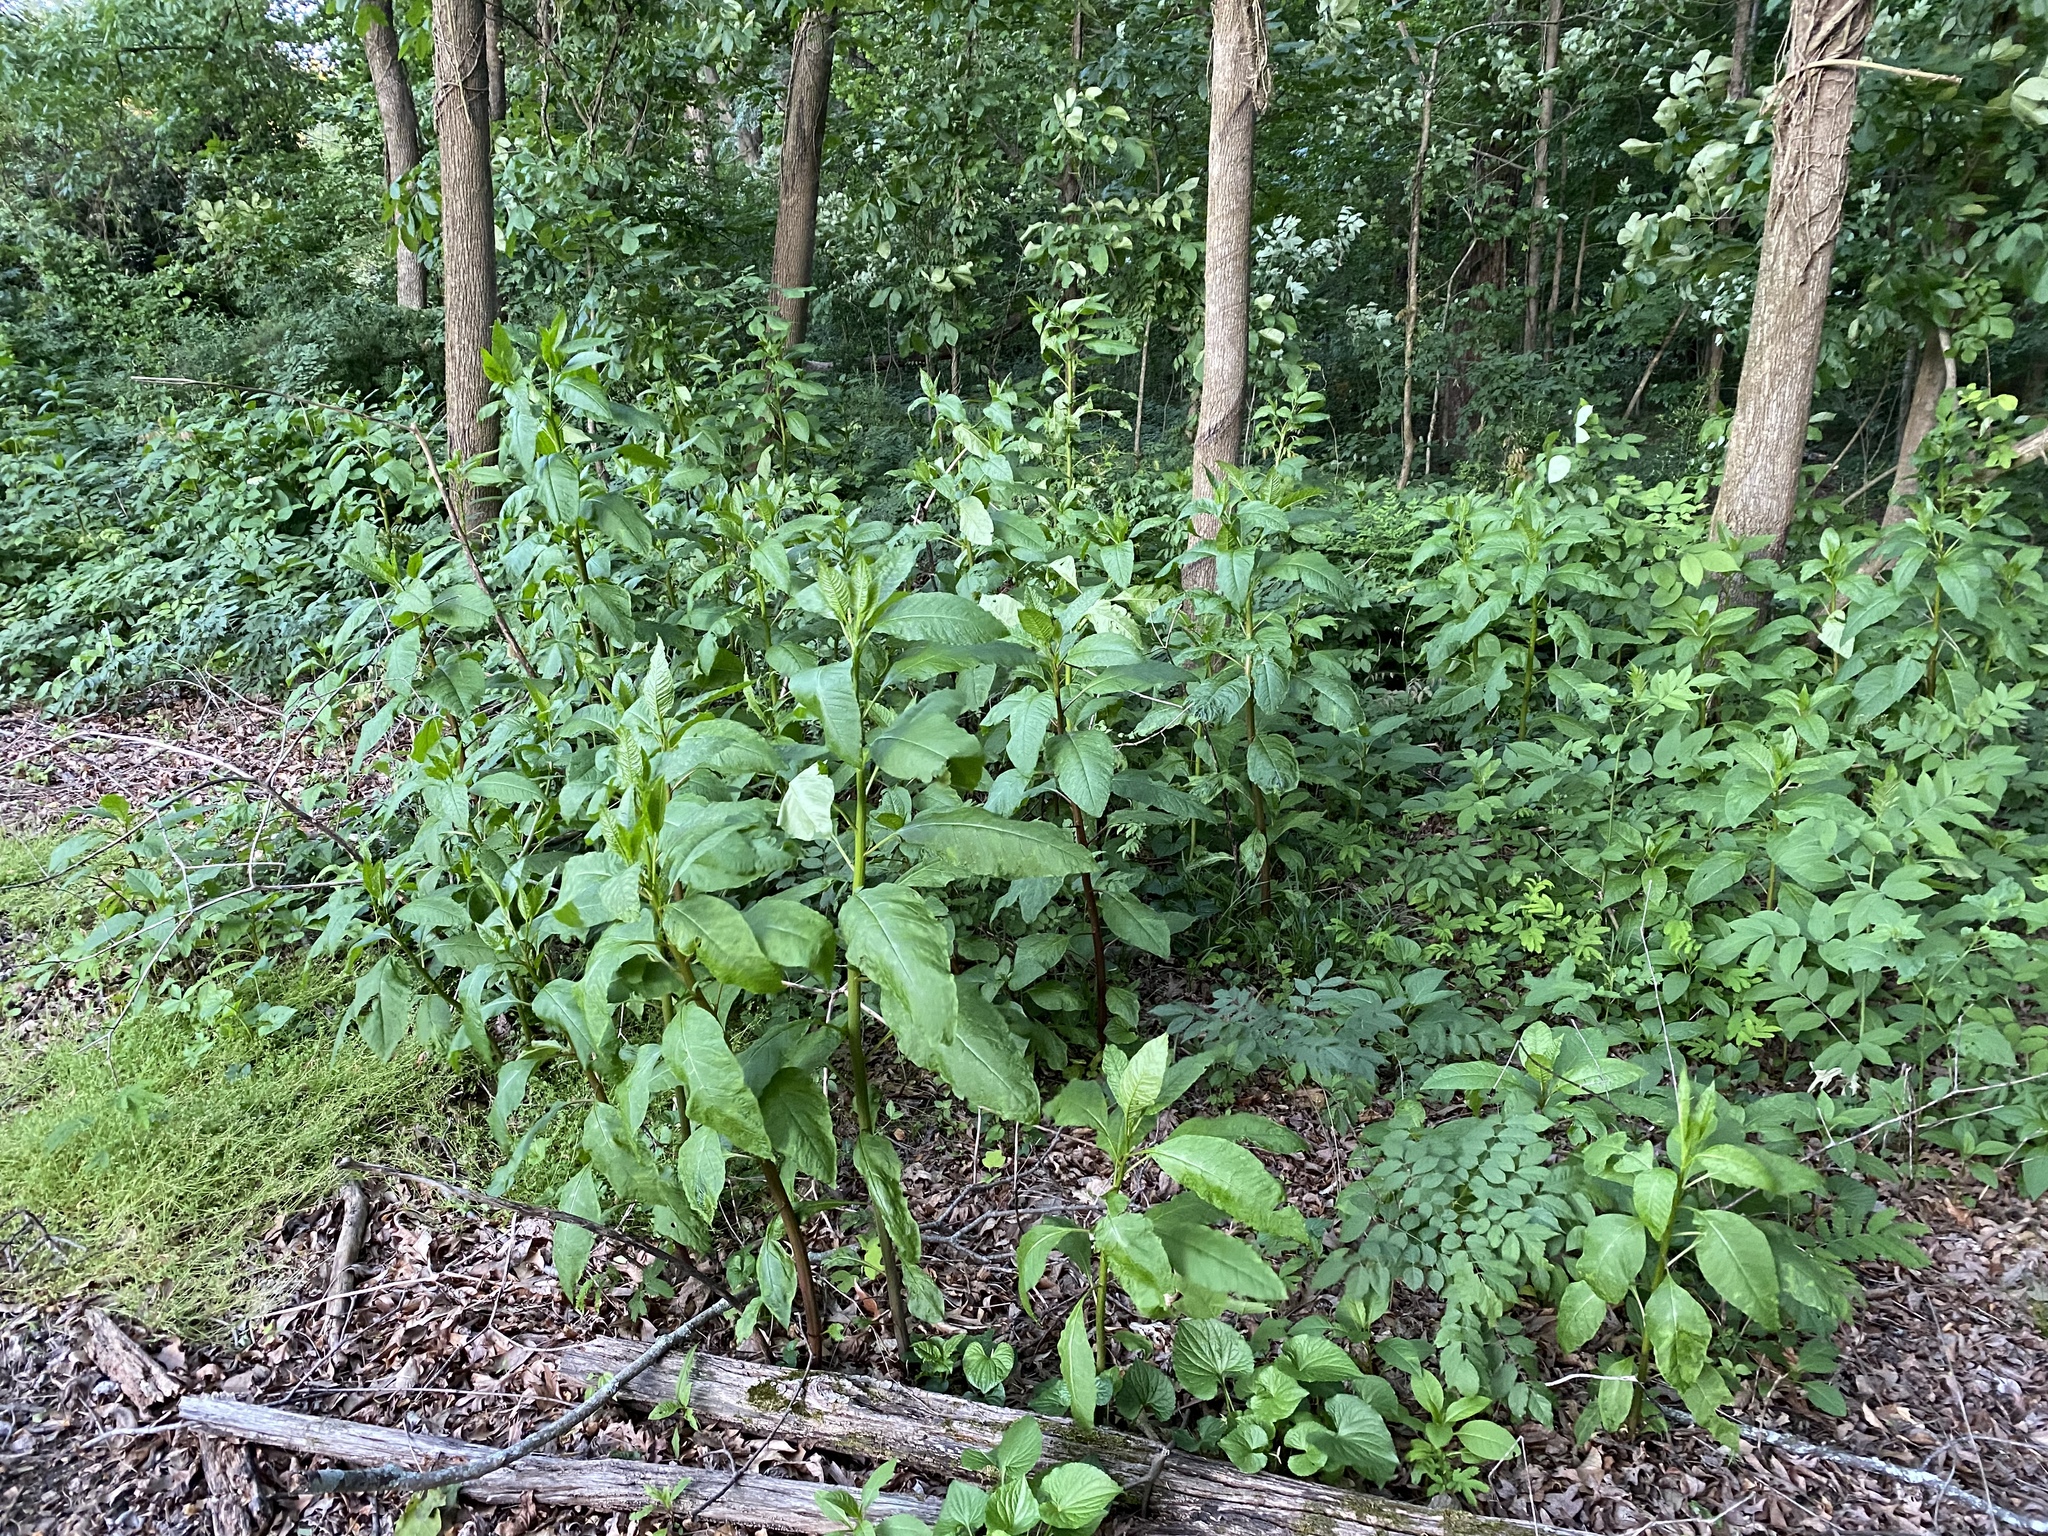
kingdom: Plantae
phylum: Tracheophyta
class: Magnoliopsida
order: Caryophyllales
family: Phytolaccaceae
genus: Phytolacca
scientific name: Phytolacca americana
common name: American pokeweed
